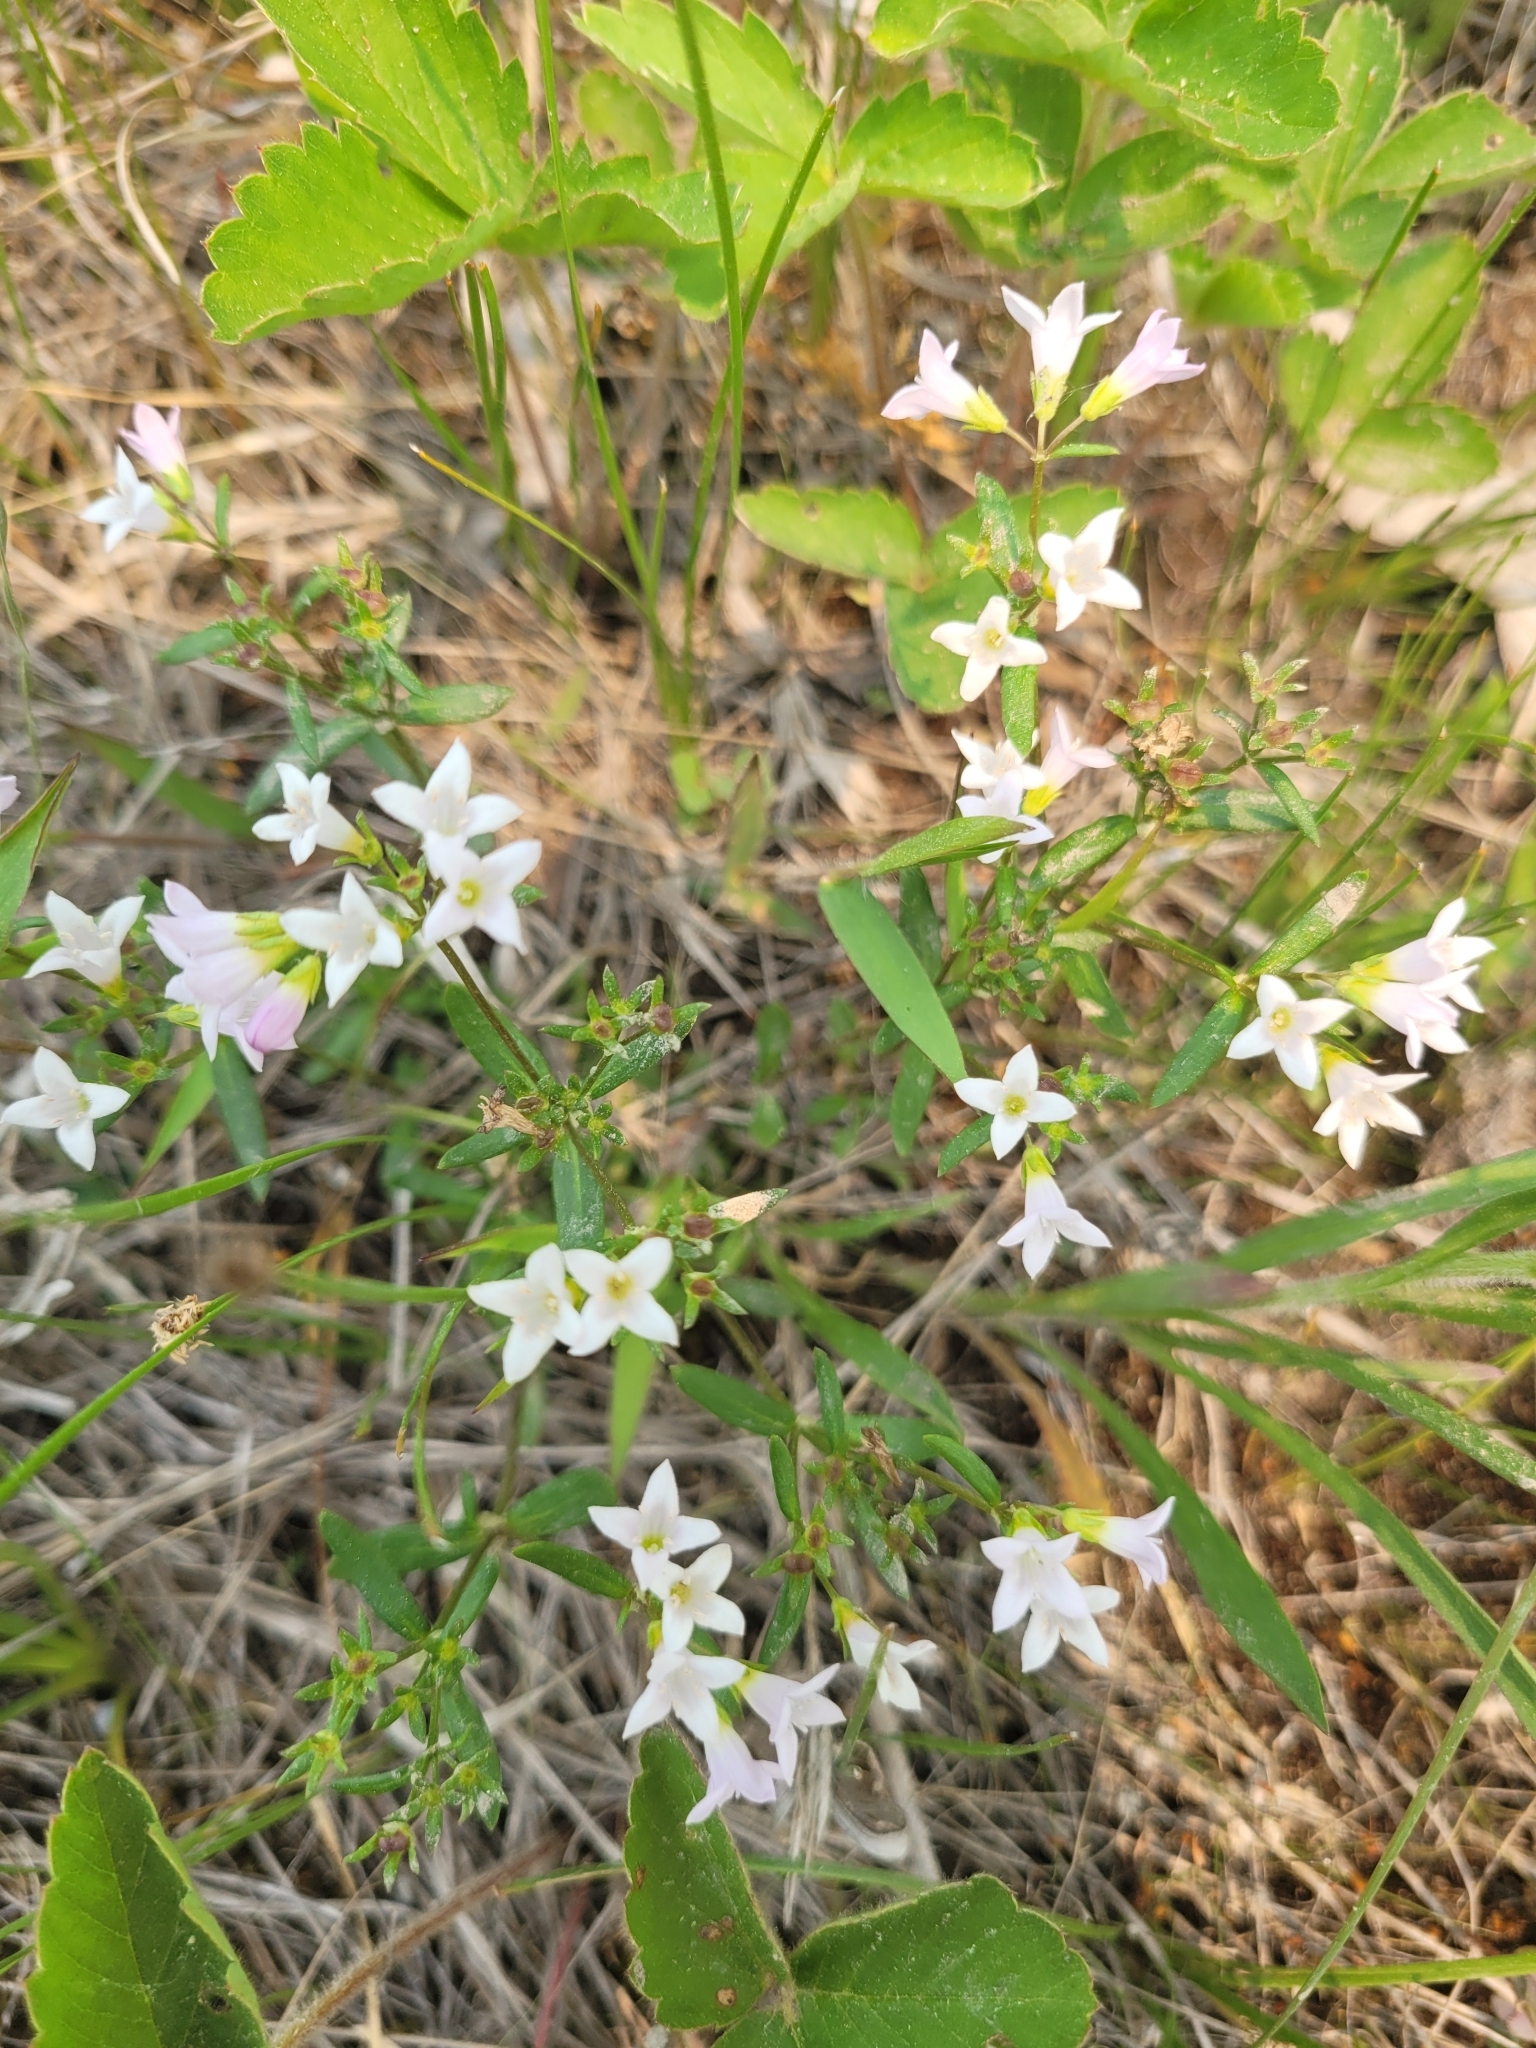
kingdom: Plantae
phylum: Tracheophyta
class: Magnoliopsida
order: Gentianales
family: Rubiaceae
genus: Houstonia
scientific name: Houstonia longifolia
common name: Long-leaved bluets
